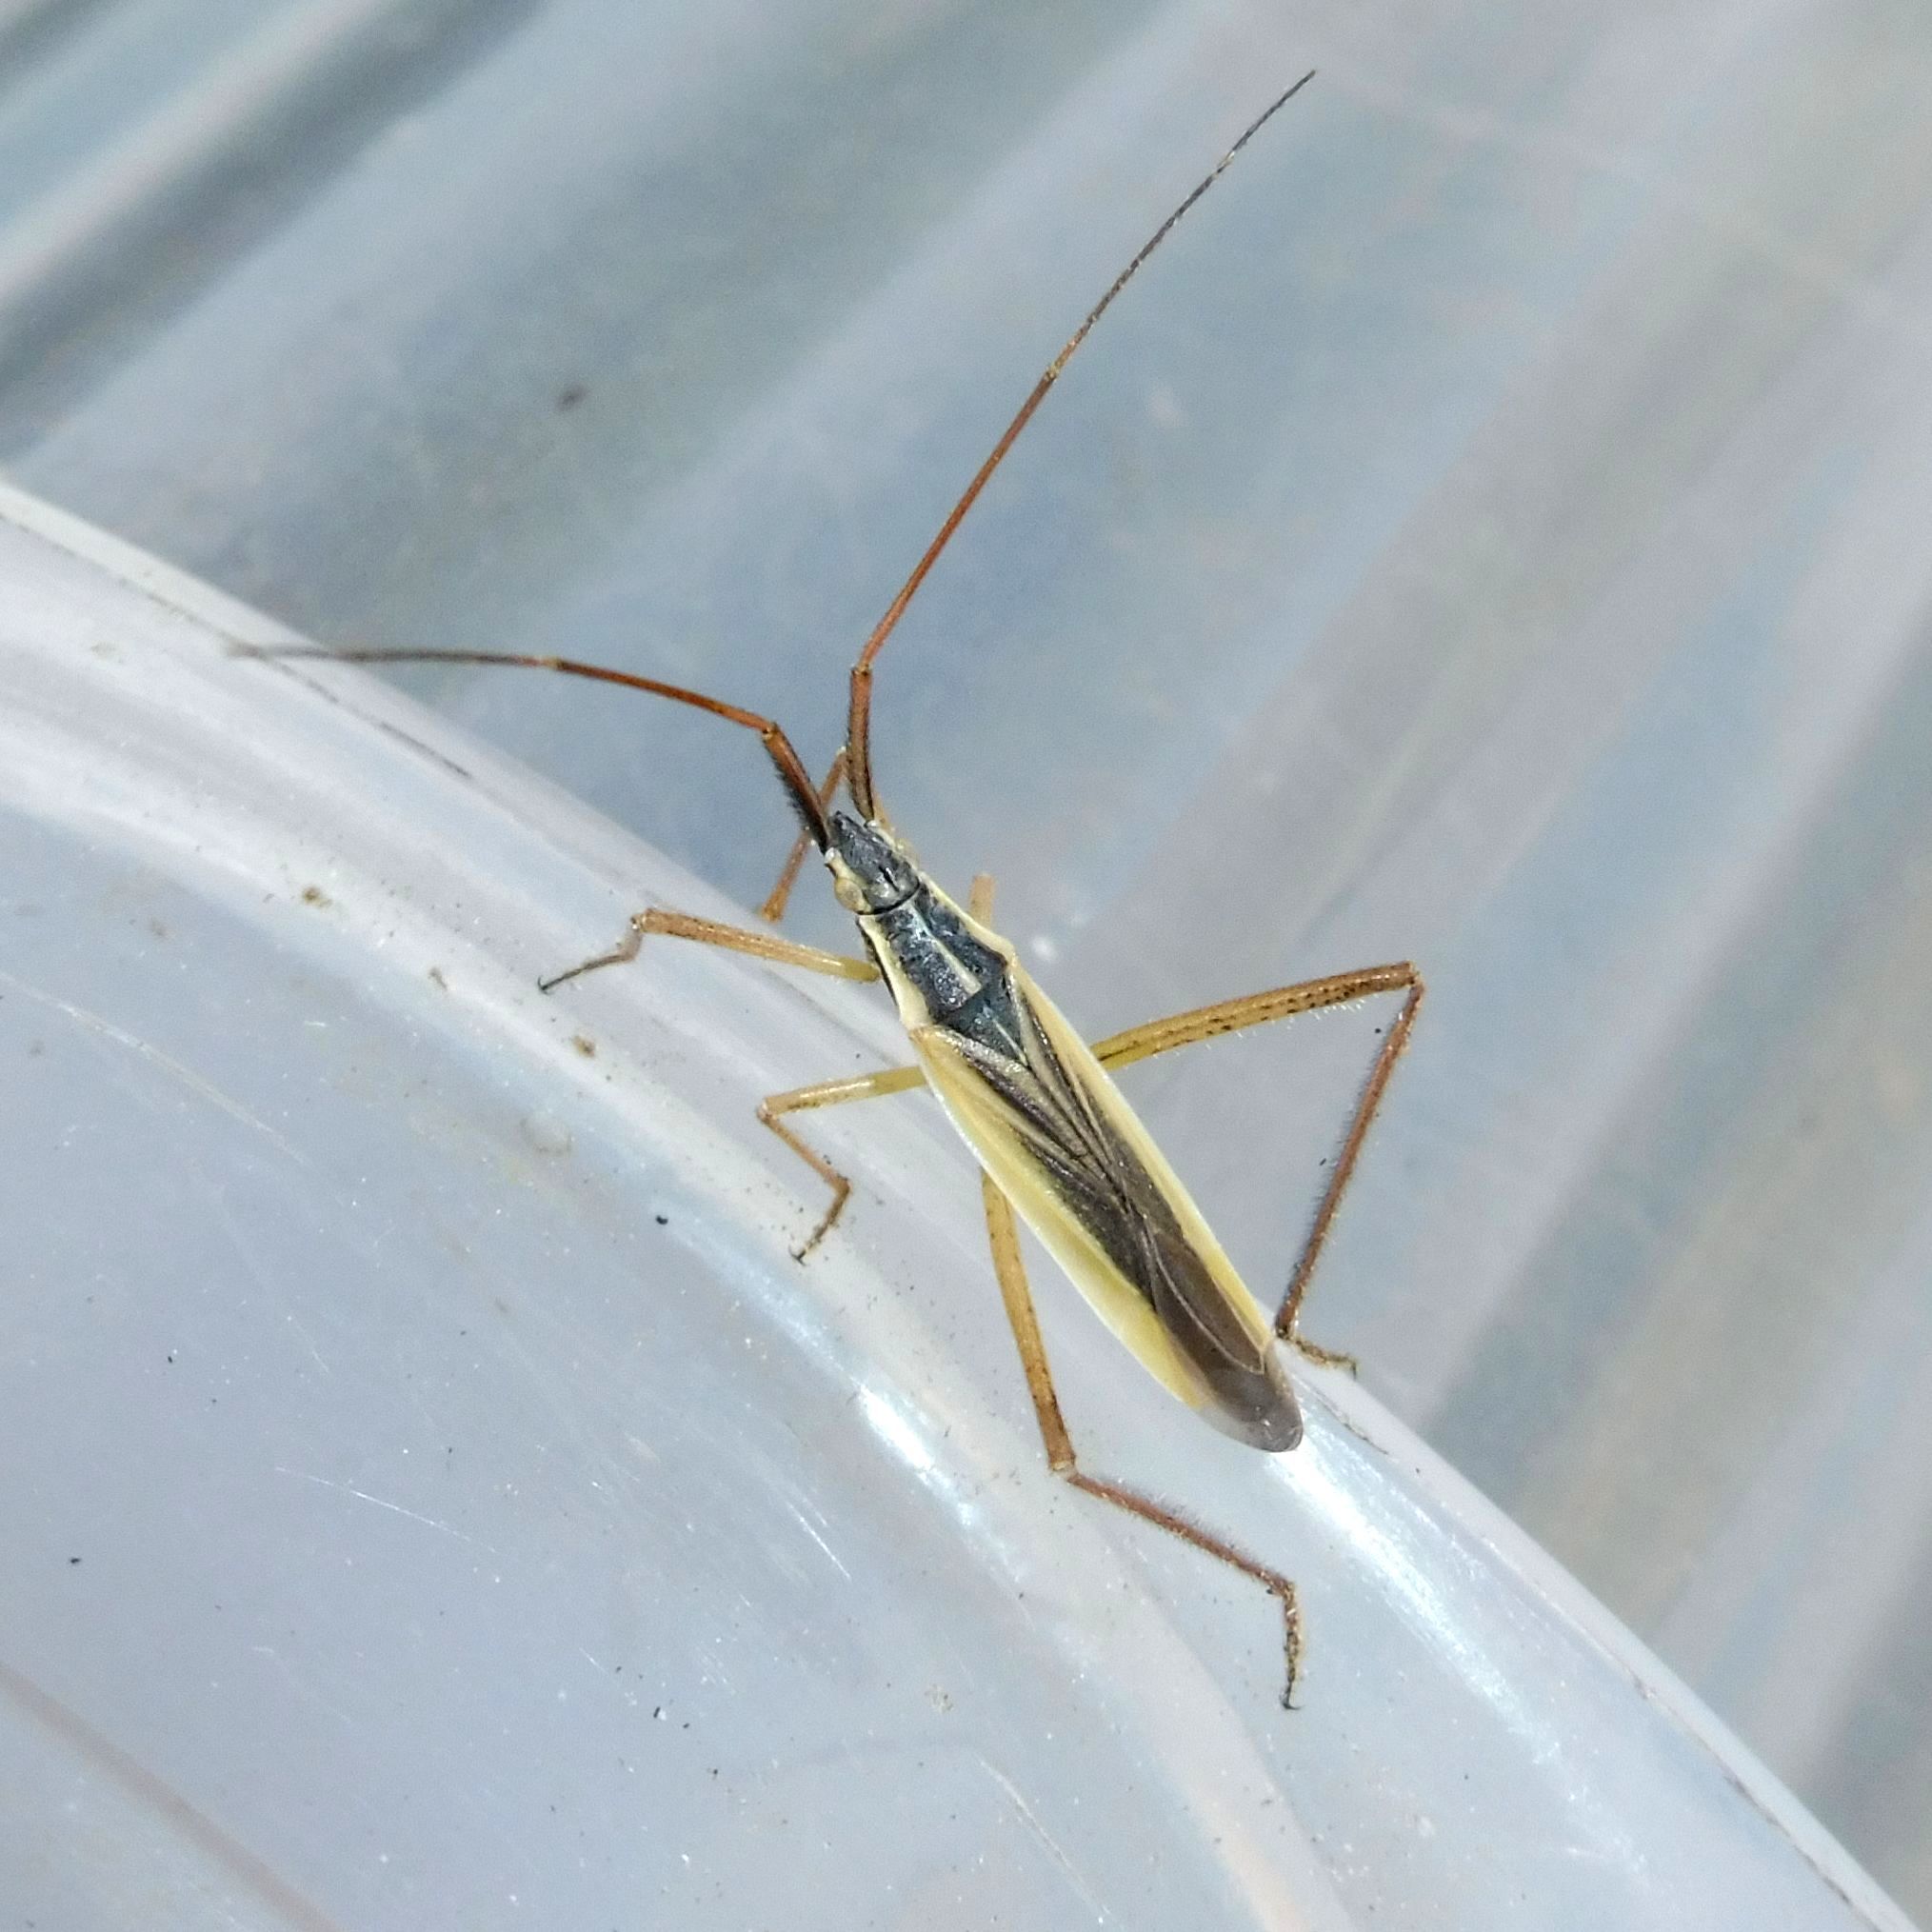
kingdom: Animalia
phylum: Arthropoda
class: Insecta
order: Hemiptera
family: Miridae
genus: Notostira
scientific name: Notostira elongata
